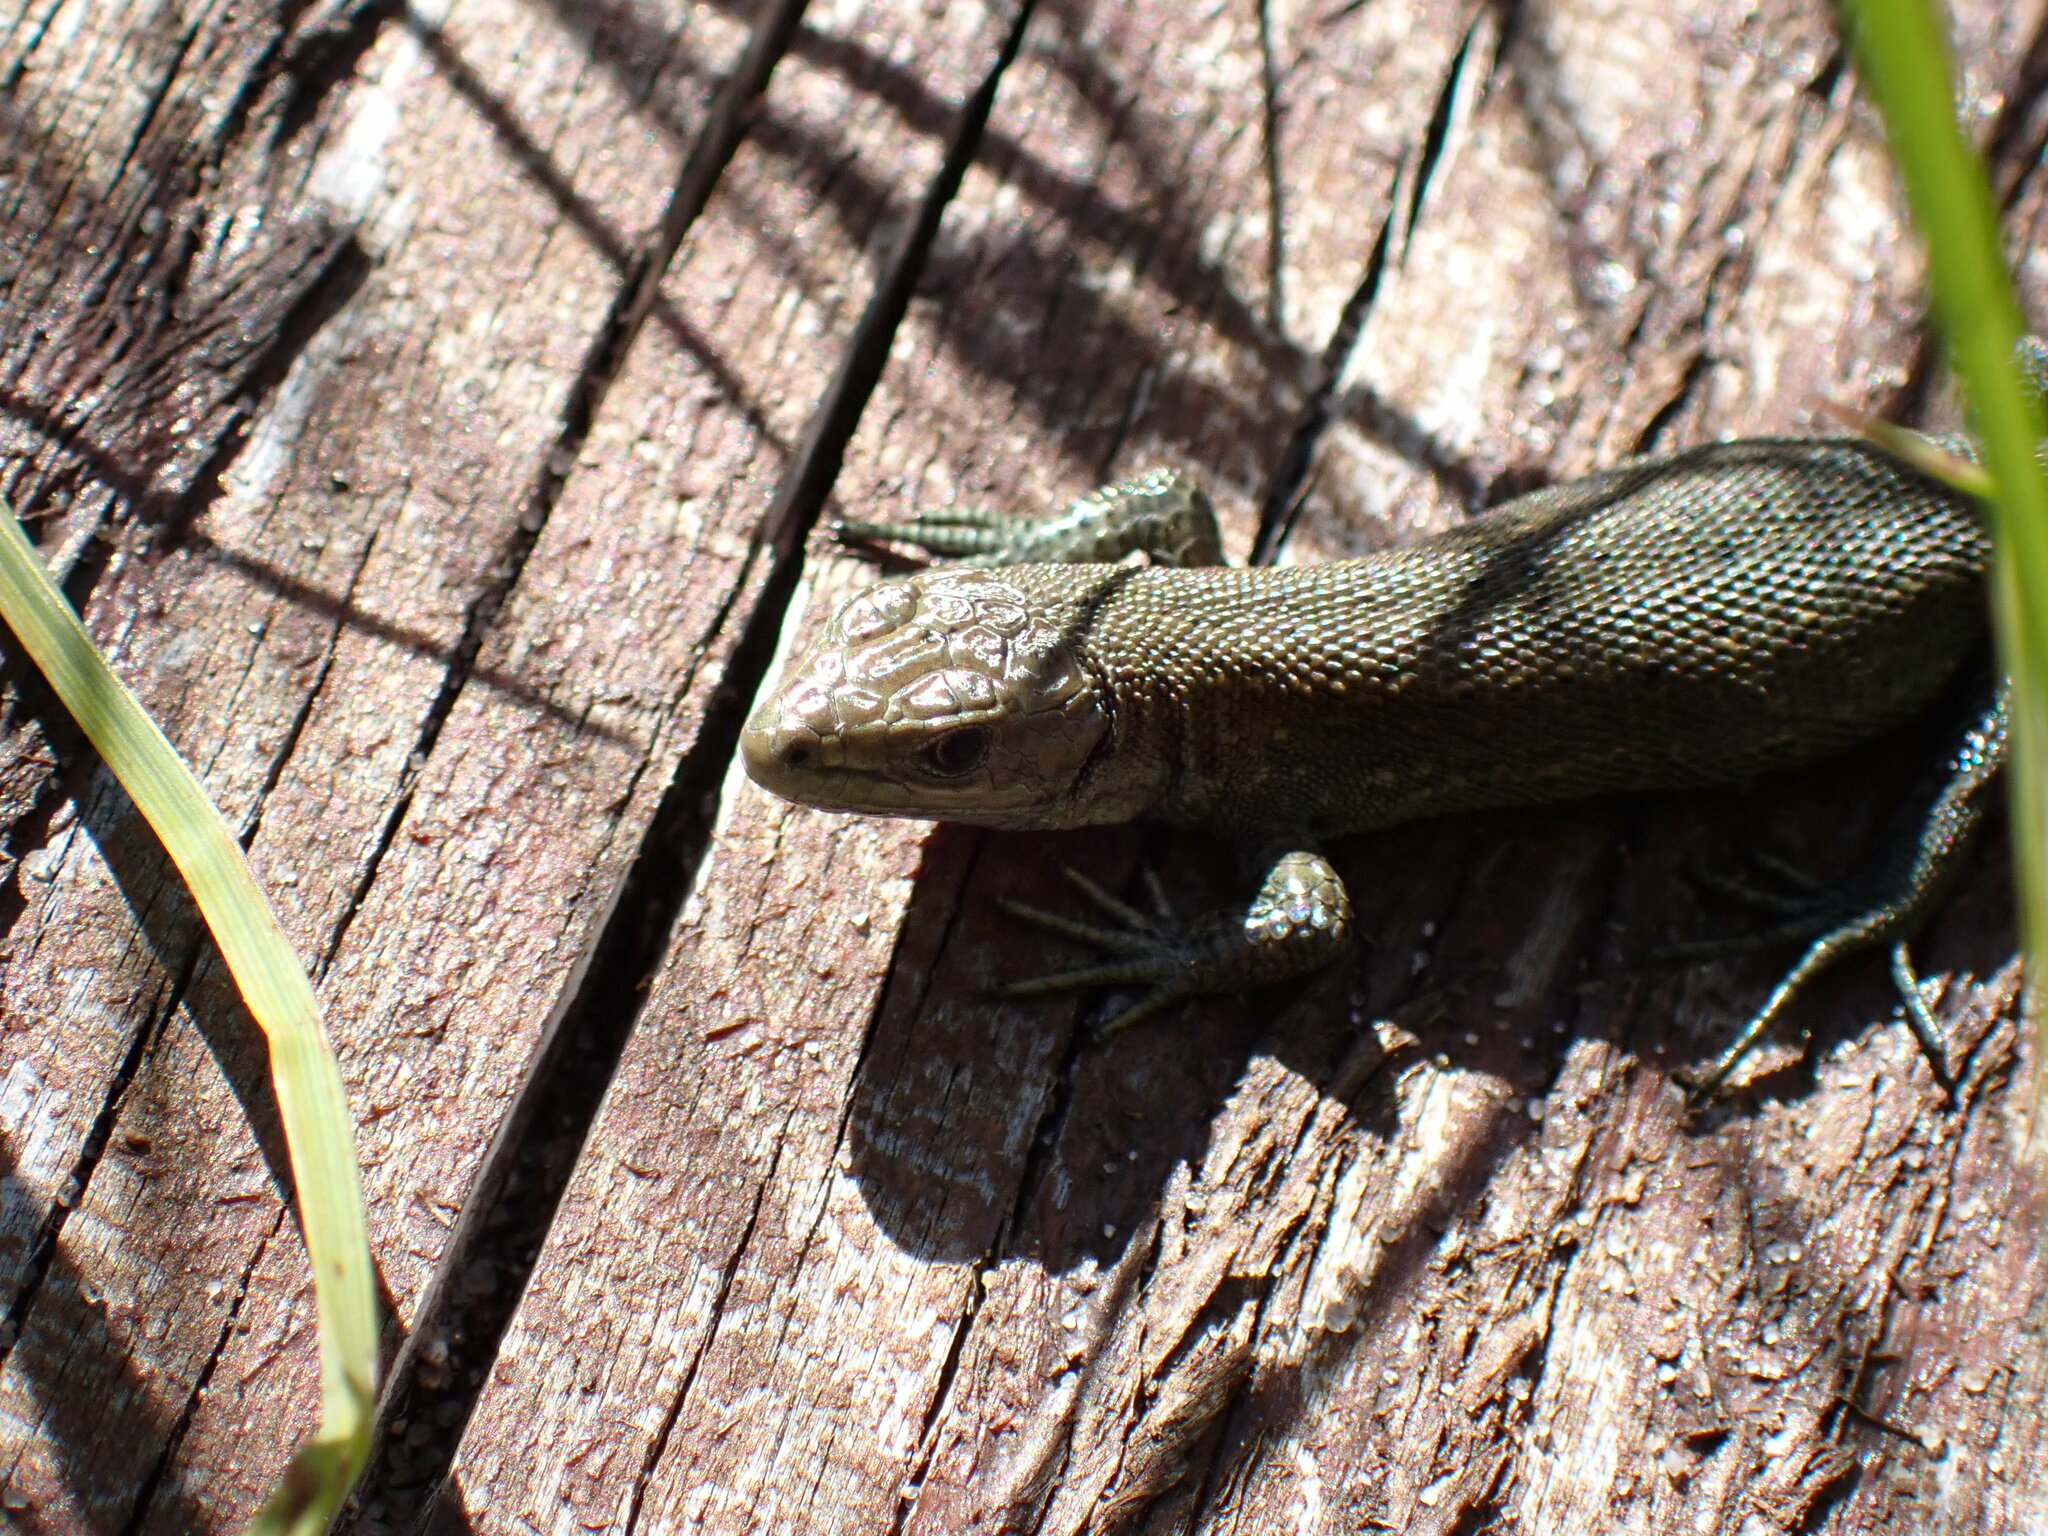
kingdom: Animalia
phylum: Chordata
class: Squamata
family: Lacertidae
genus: Zootoca
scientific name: Zootoca vivipara
